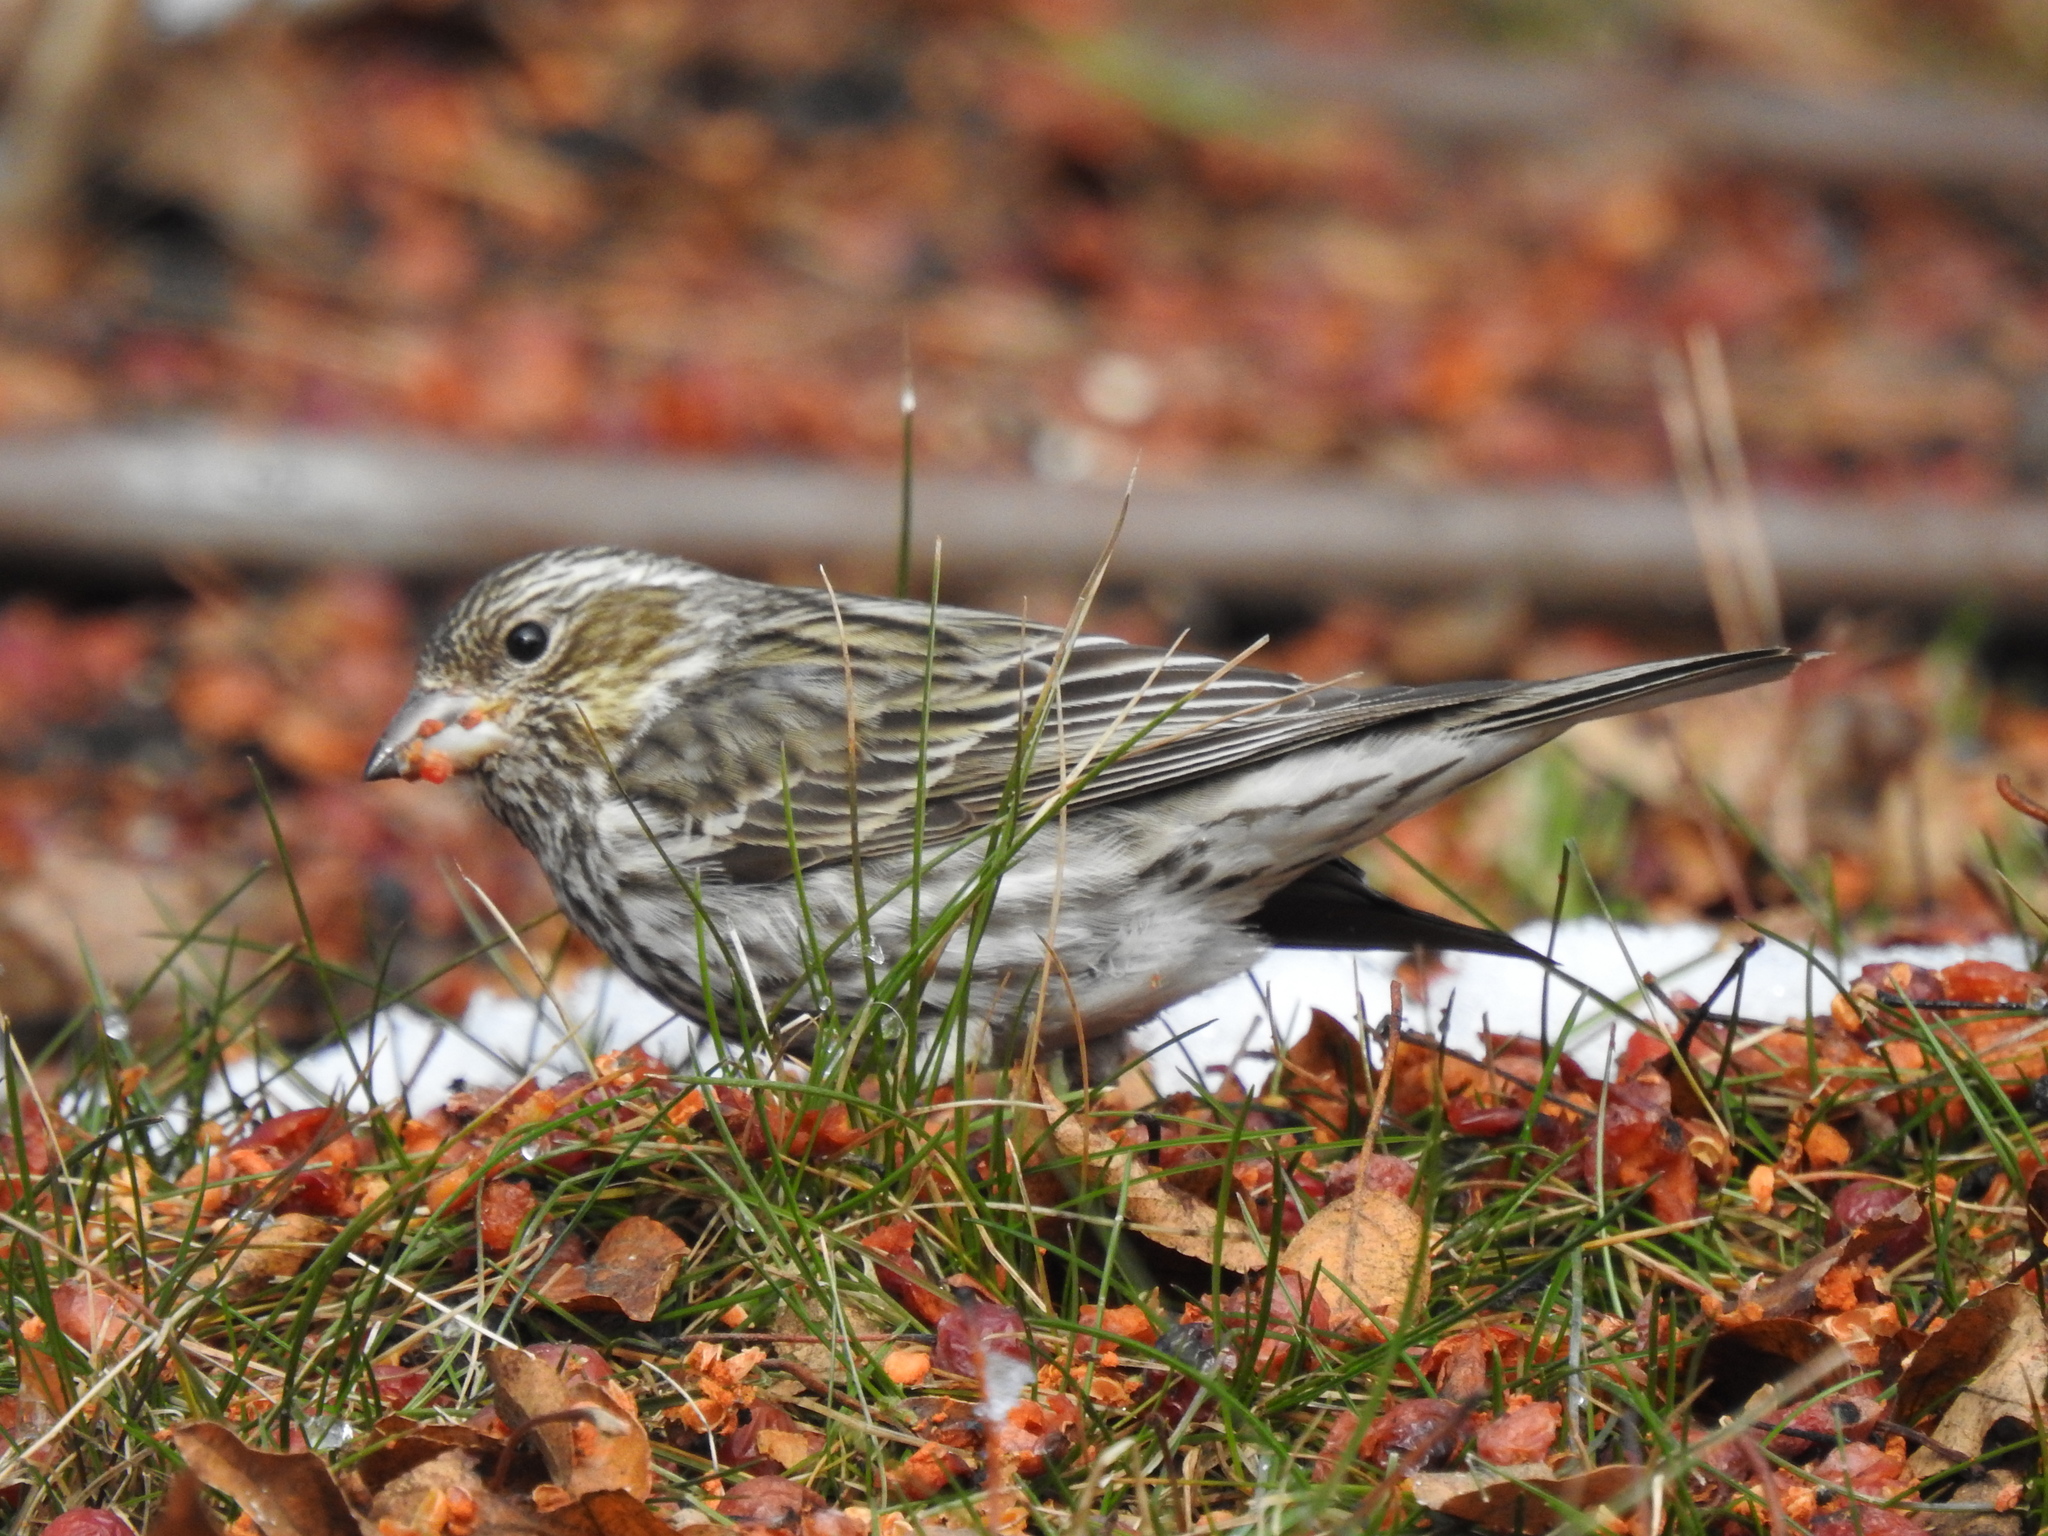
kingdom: Animalia
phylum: Chordata
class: Aves
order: Passeriformes
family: Fringillidae
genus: Haemorhous
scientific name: Haemorhous cassinii
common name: Cassin's finch
